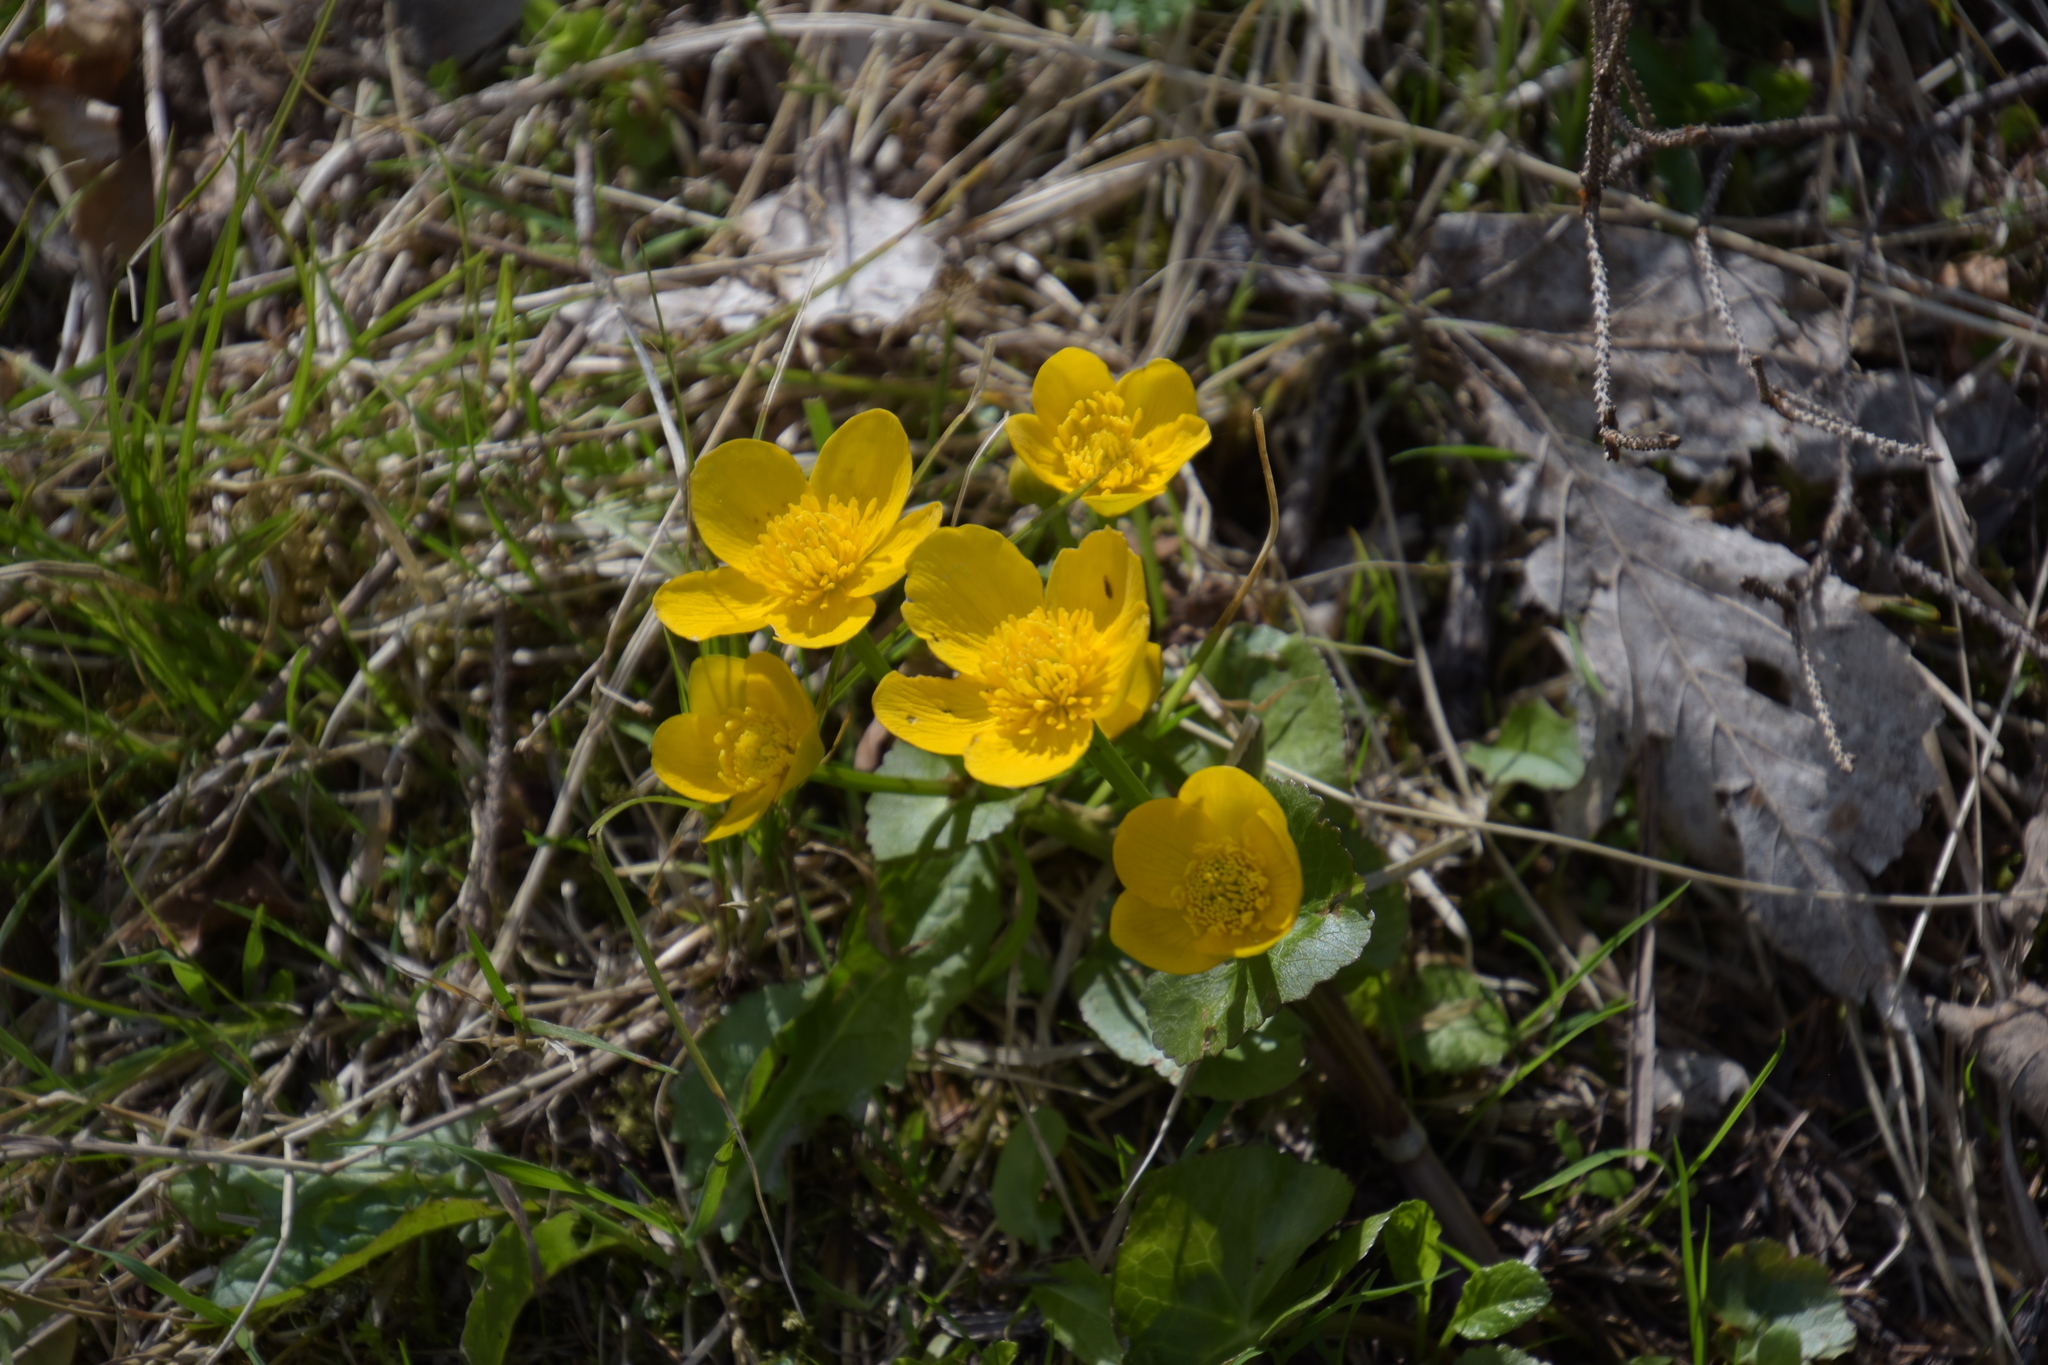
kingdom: Plantae
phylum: Tracheophyta
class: Magnoliopsida
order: Ranunculales
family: Ranunculaceae
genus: Caltha
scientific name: Caltha palustris
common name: Marsh marigold
